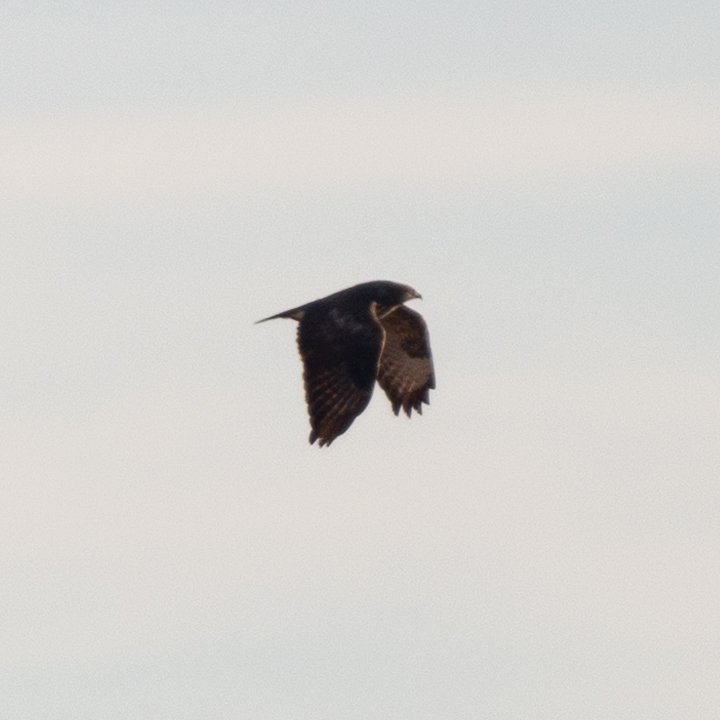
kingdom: Animalia
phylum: Chordata
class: Aves
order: Accipitriformes
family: Accipitridae
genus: Buteo
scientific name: Buteo buteo
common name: Common buzzard
